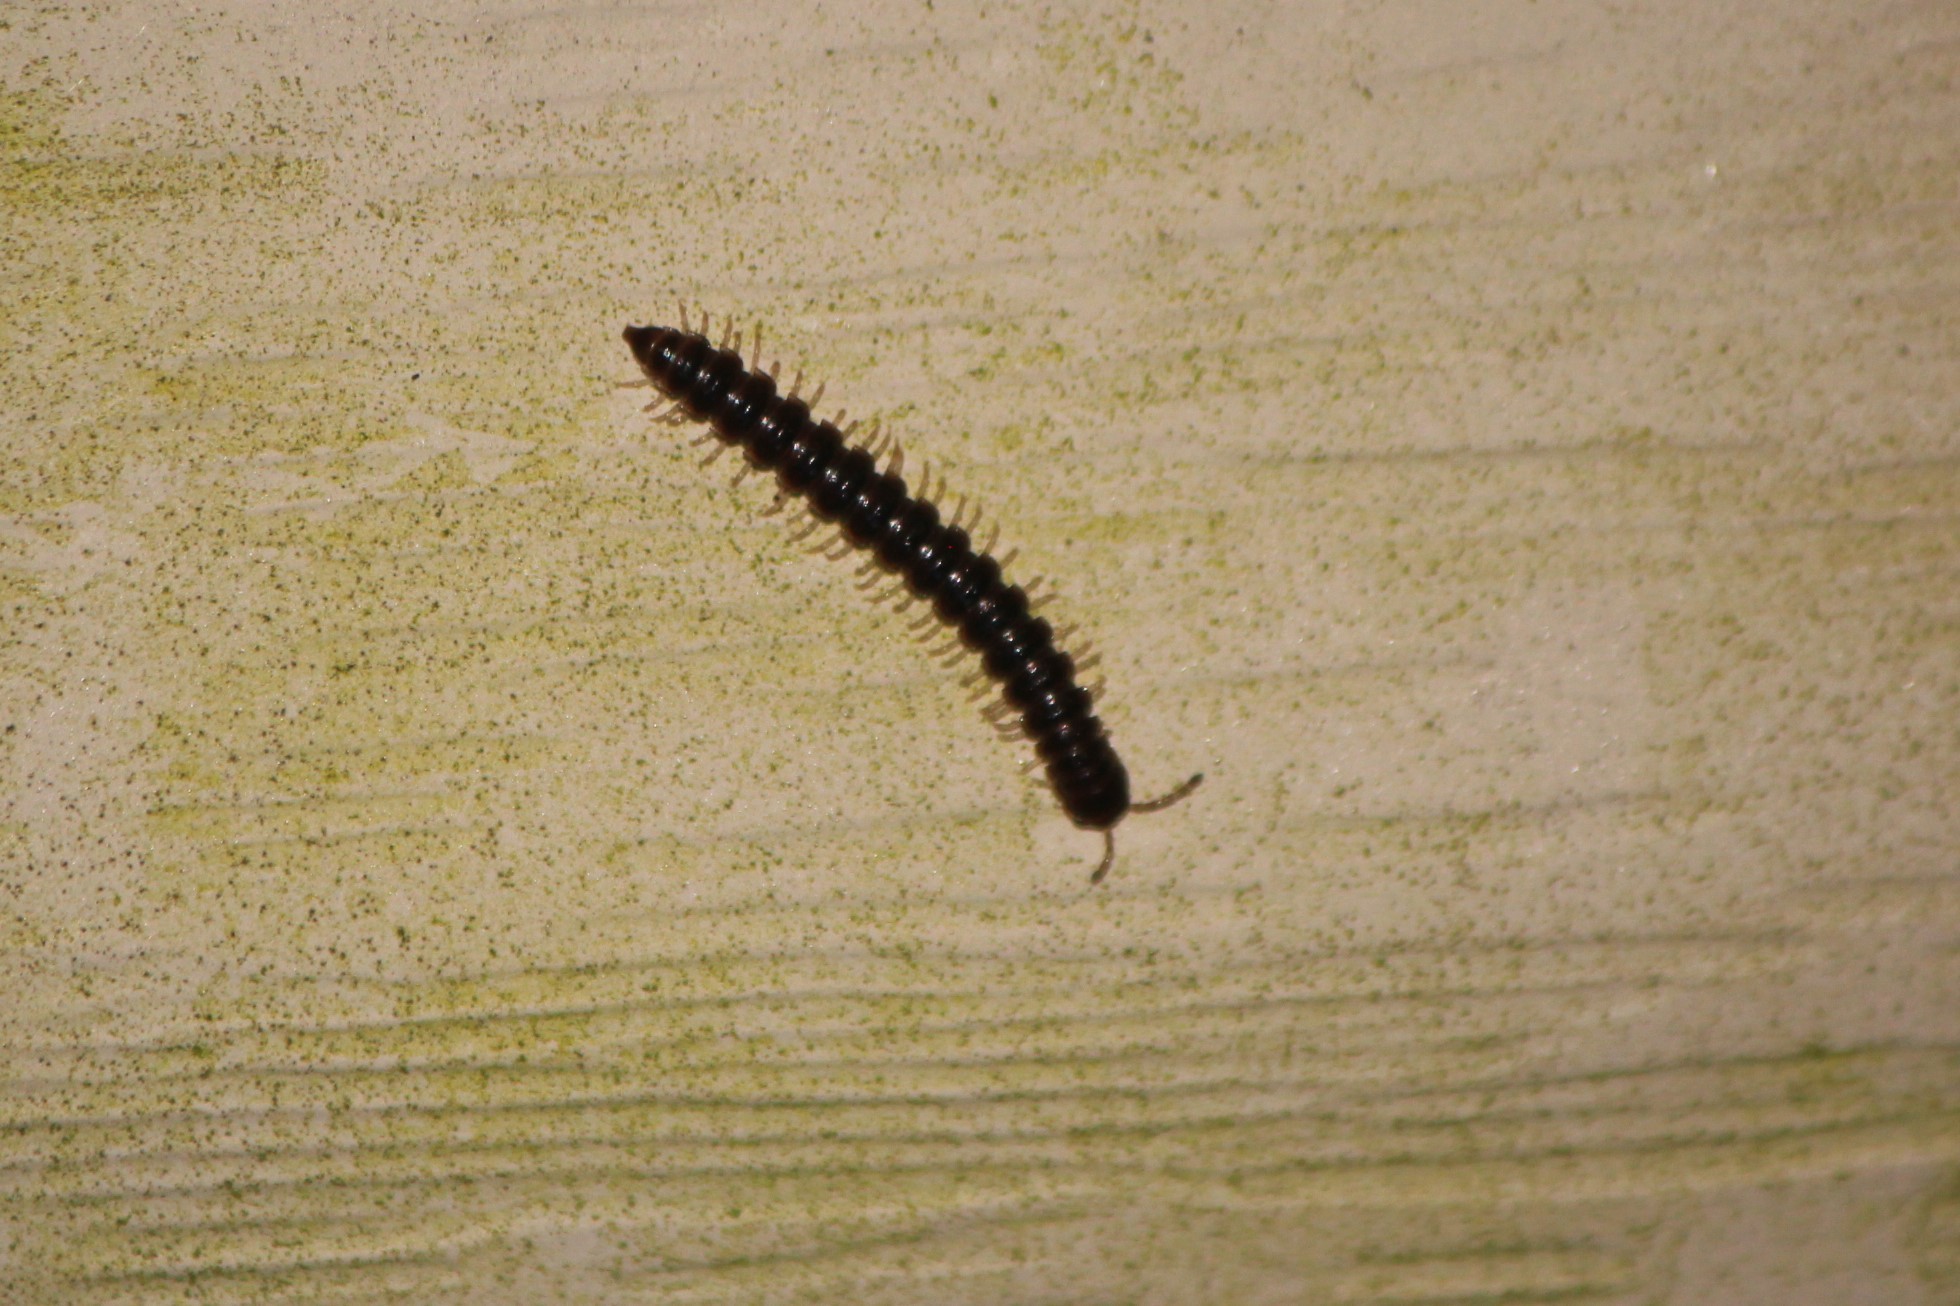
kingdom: Animalia
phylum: Arthropoda
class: Diplopoda
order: Polydesmida
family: Paradoxosomatidae
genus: Oxidus
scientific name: Oxidus gracilis
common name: Greenhouse millipede
